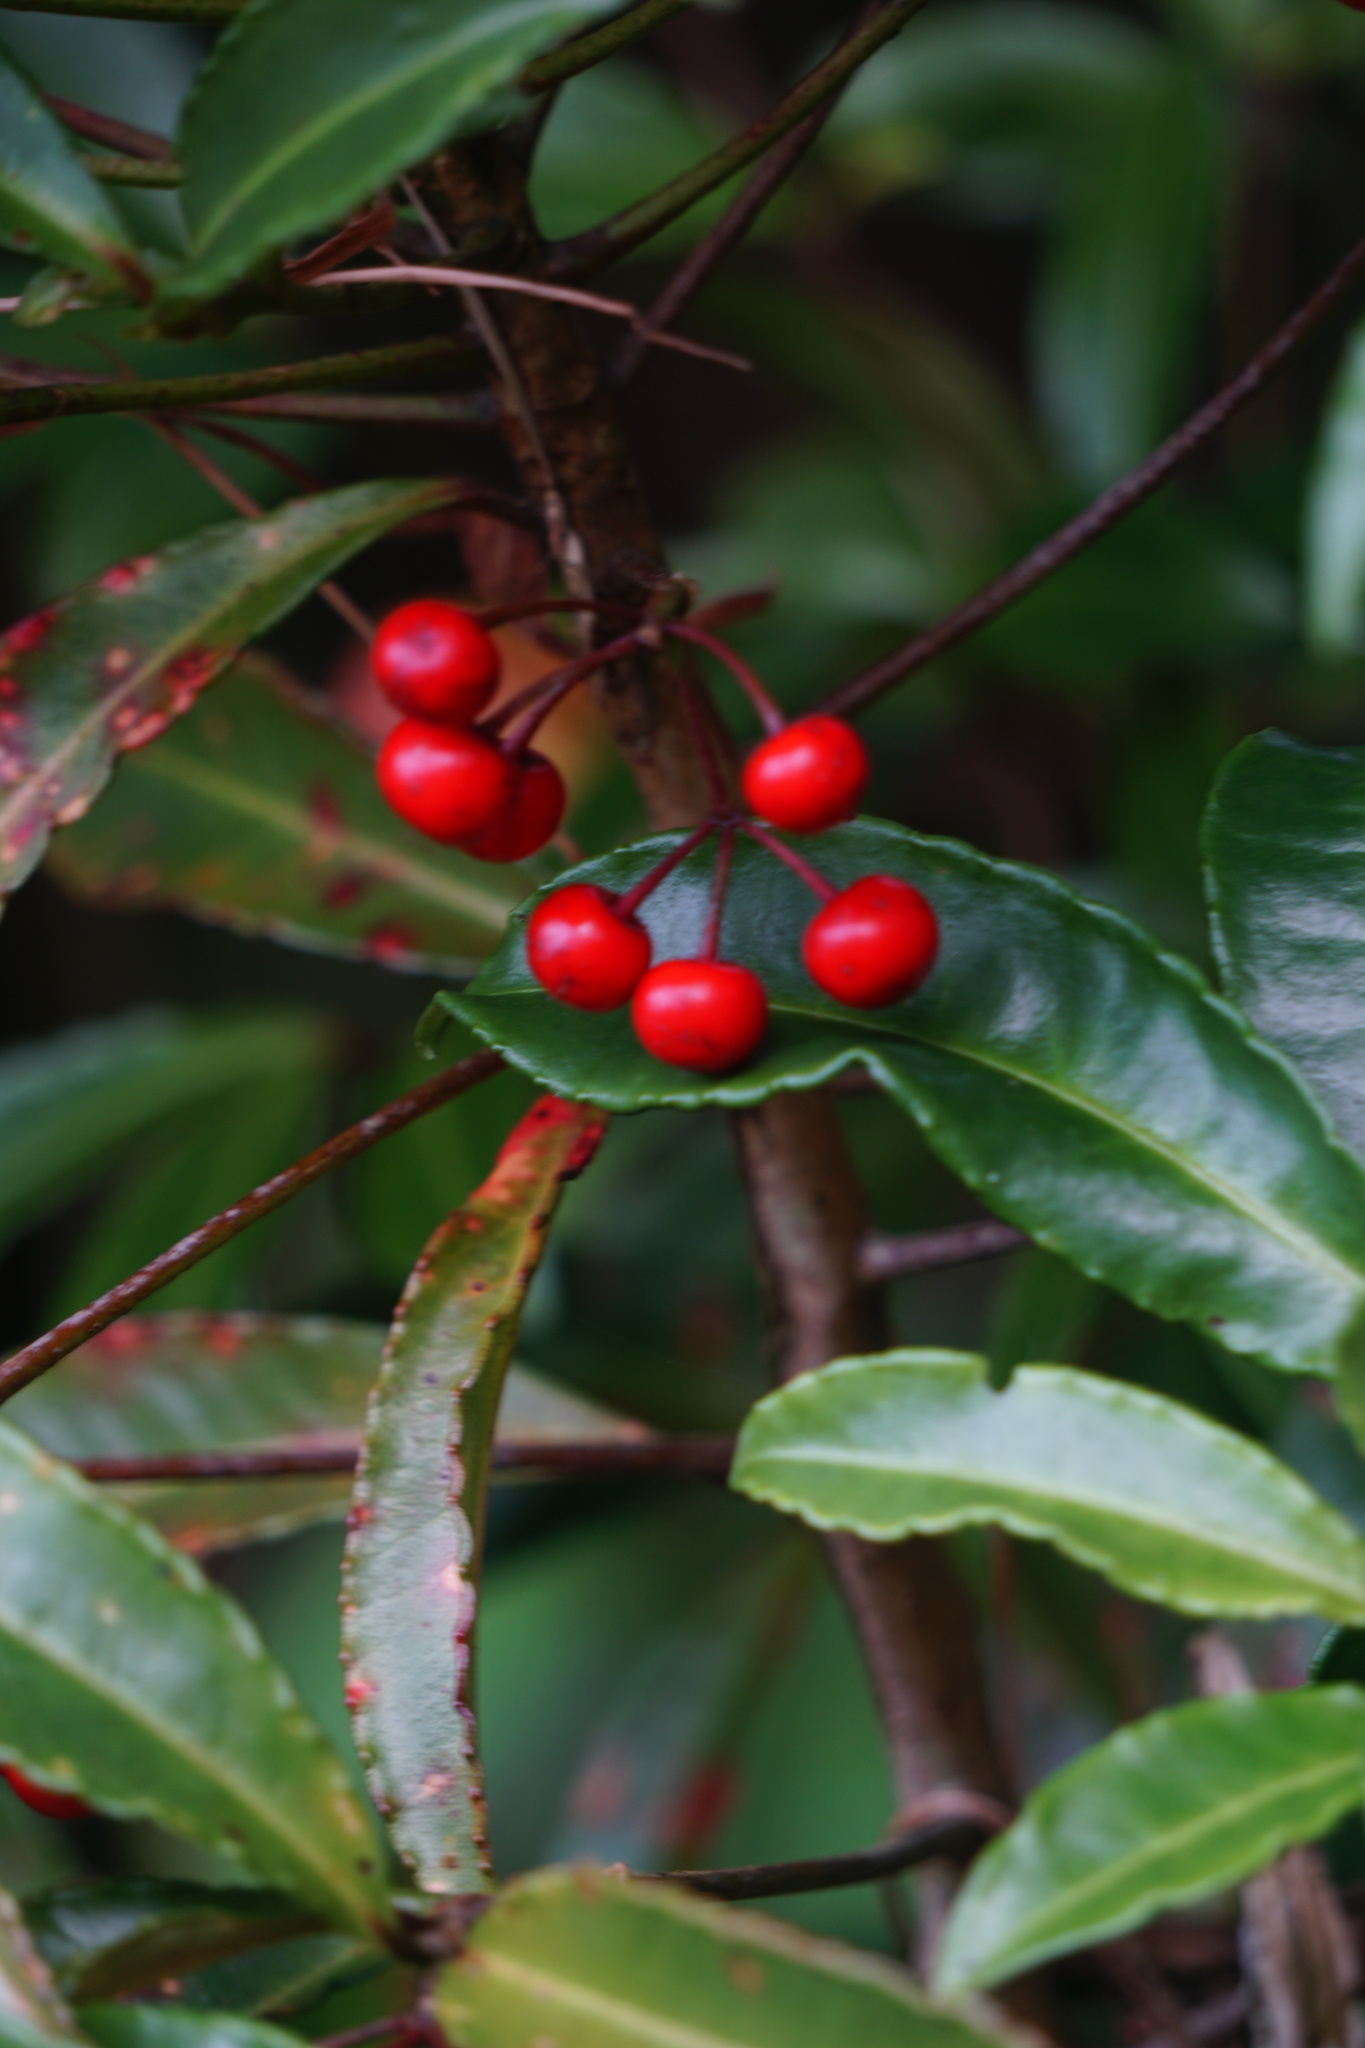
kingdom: Plantae
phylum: Tracheophyta
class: Magnoliopsida
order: Ericales
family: Primulaceae
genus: Ardisia
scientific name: Ardisia crispa
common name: Japanese-holly
